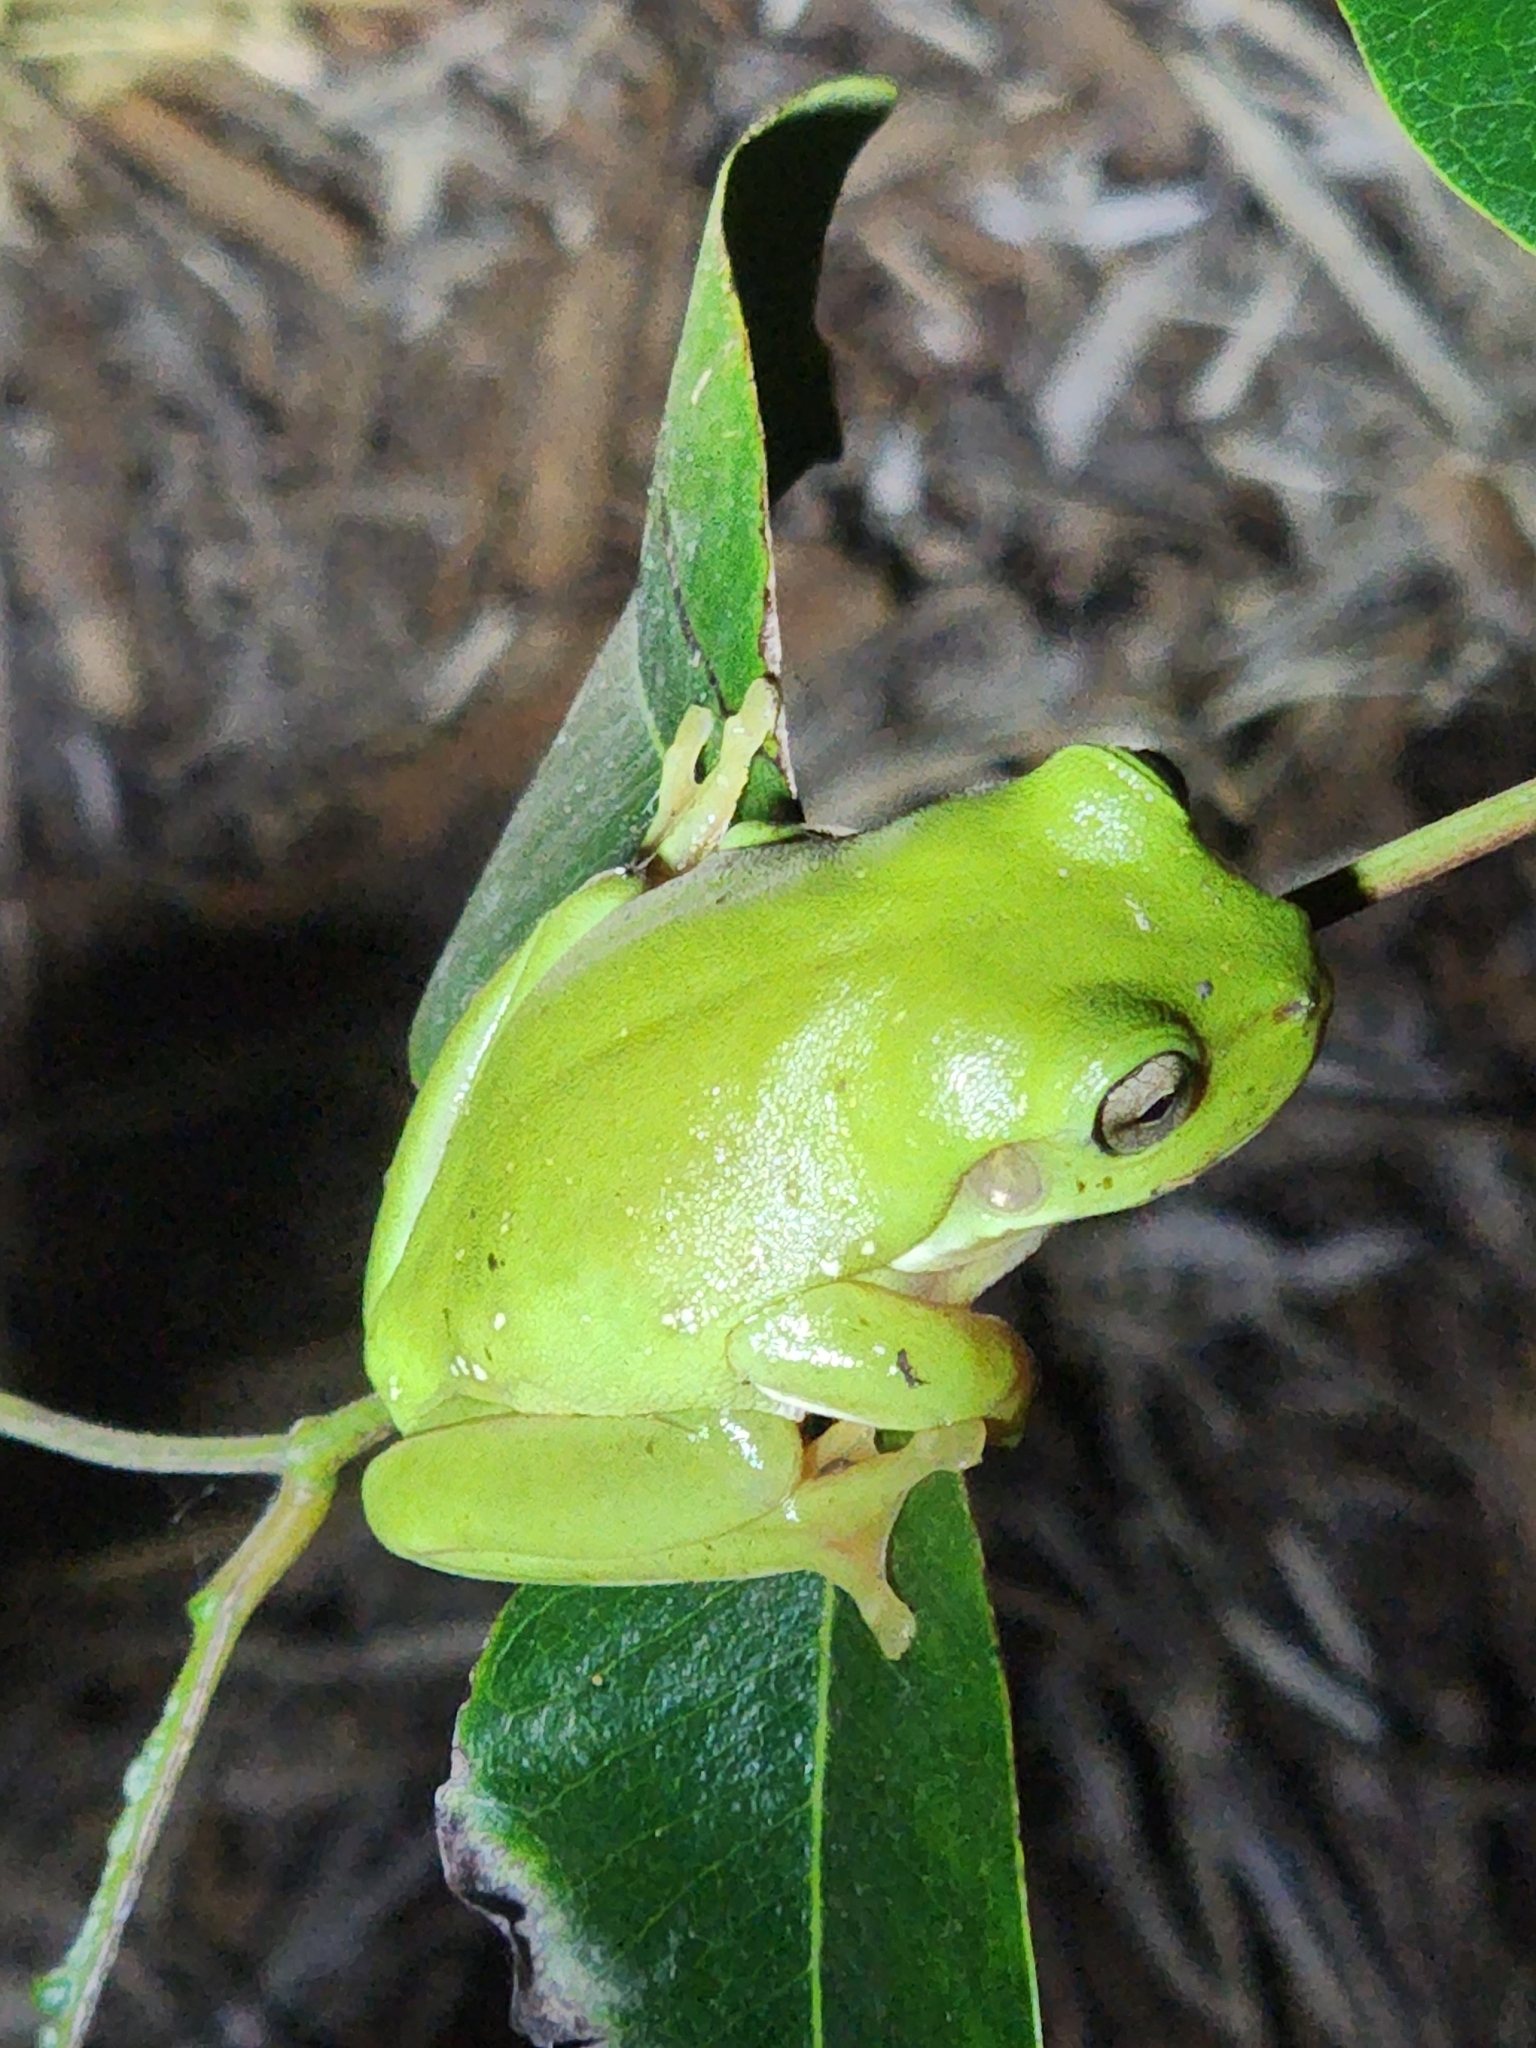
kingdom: Animalia
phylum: Chordata
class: Amphibia
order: Anura
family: Pelodryadidae
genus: Ranoidea
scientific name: Ranoidea caerulea
